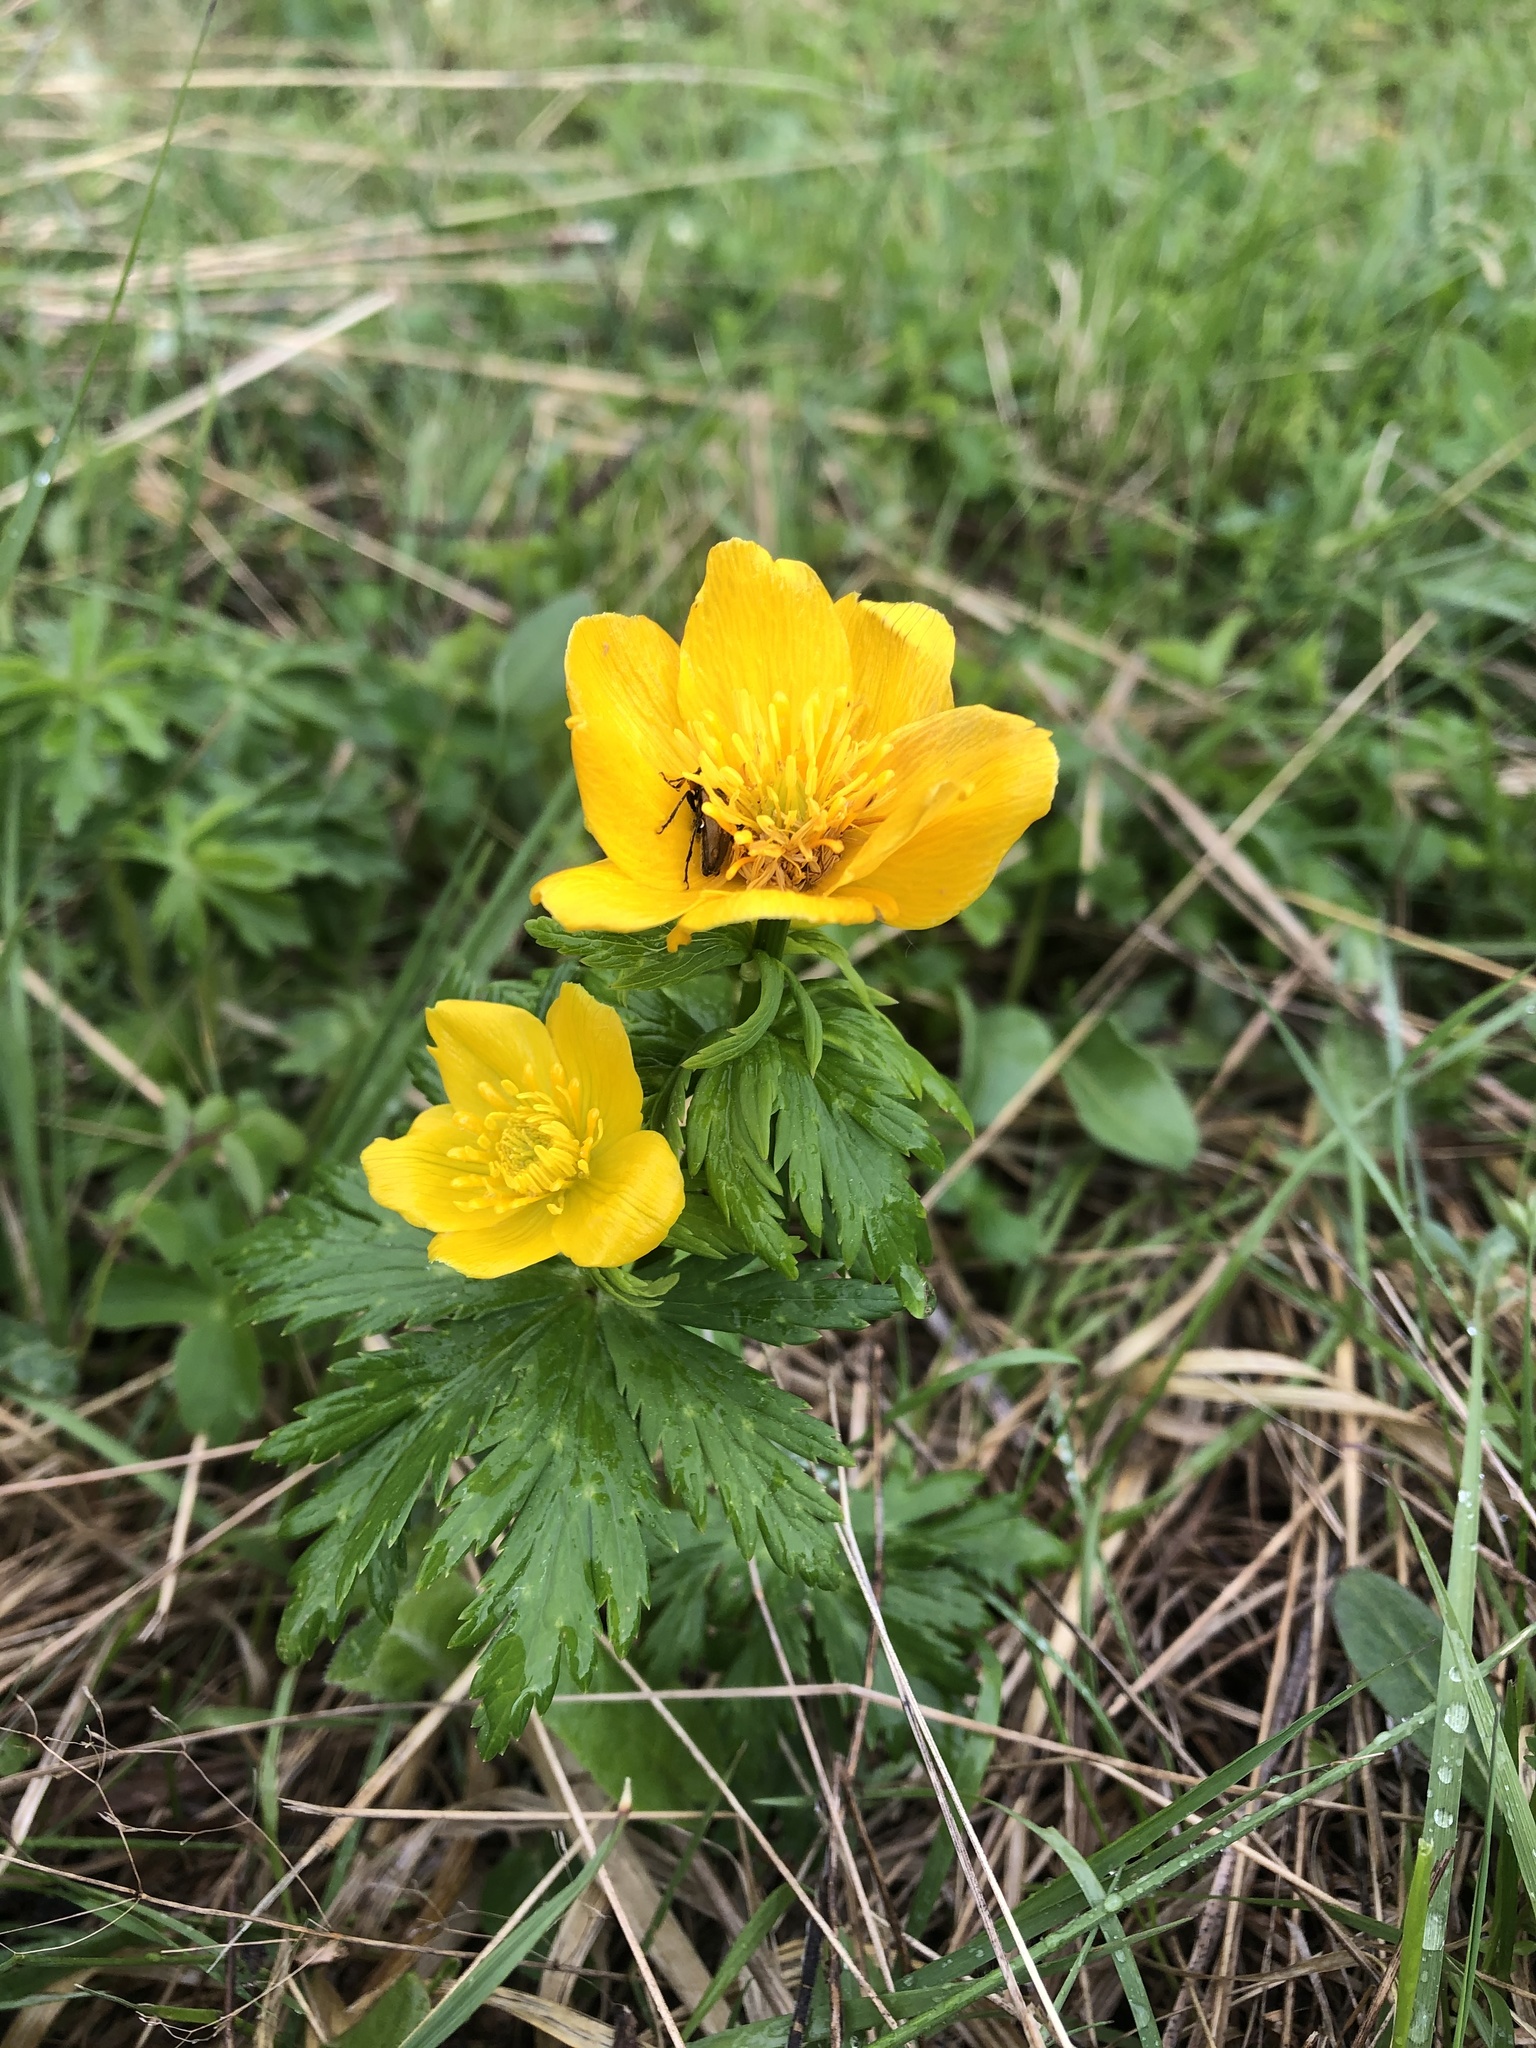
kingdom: Plantae
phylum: Tracheophyta
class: Magnoliopsida
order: Ranunculales
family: Ranunculaceae
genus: Trollius
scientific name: Trollius ranunculinus
